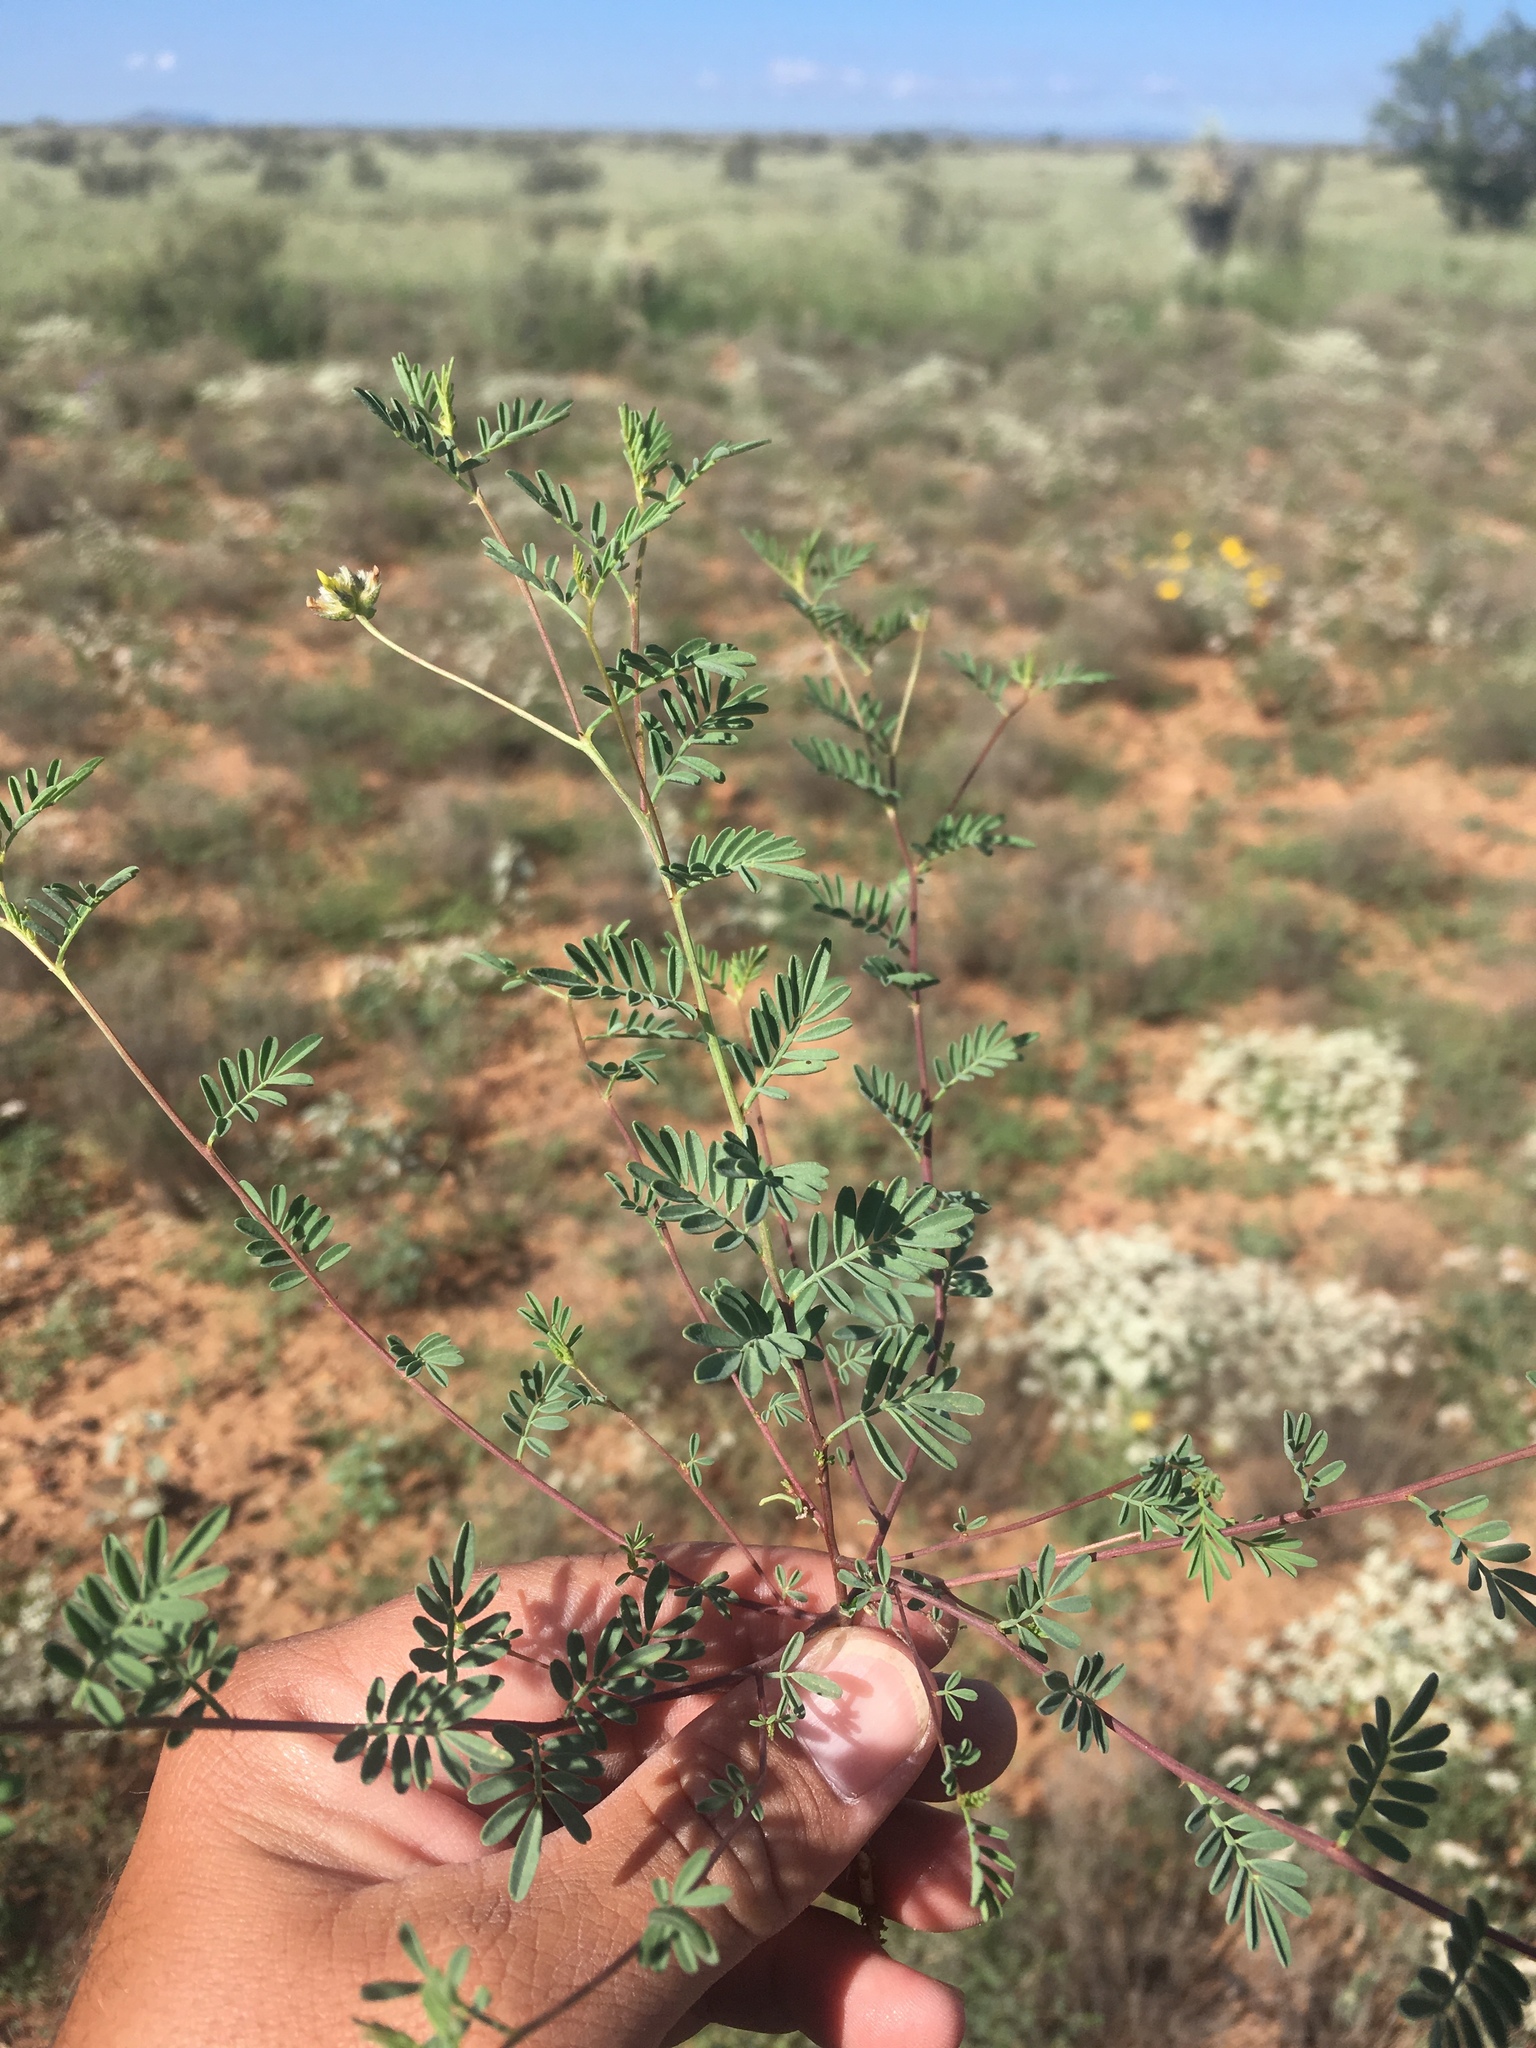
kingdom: Plantae
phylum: Tracheophyta
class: Magnoliopsida
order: Fabales
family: Fabaceae
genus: Dalea
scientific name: Dalea brachystachya
